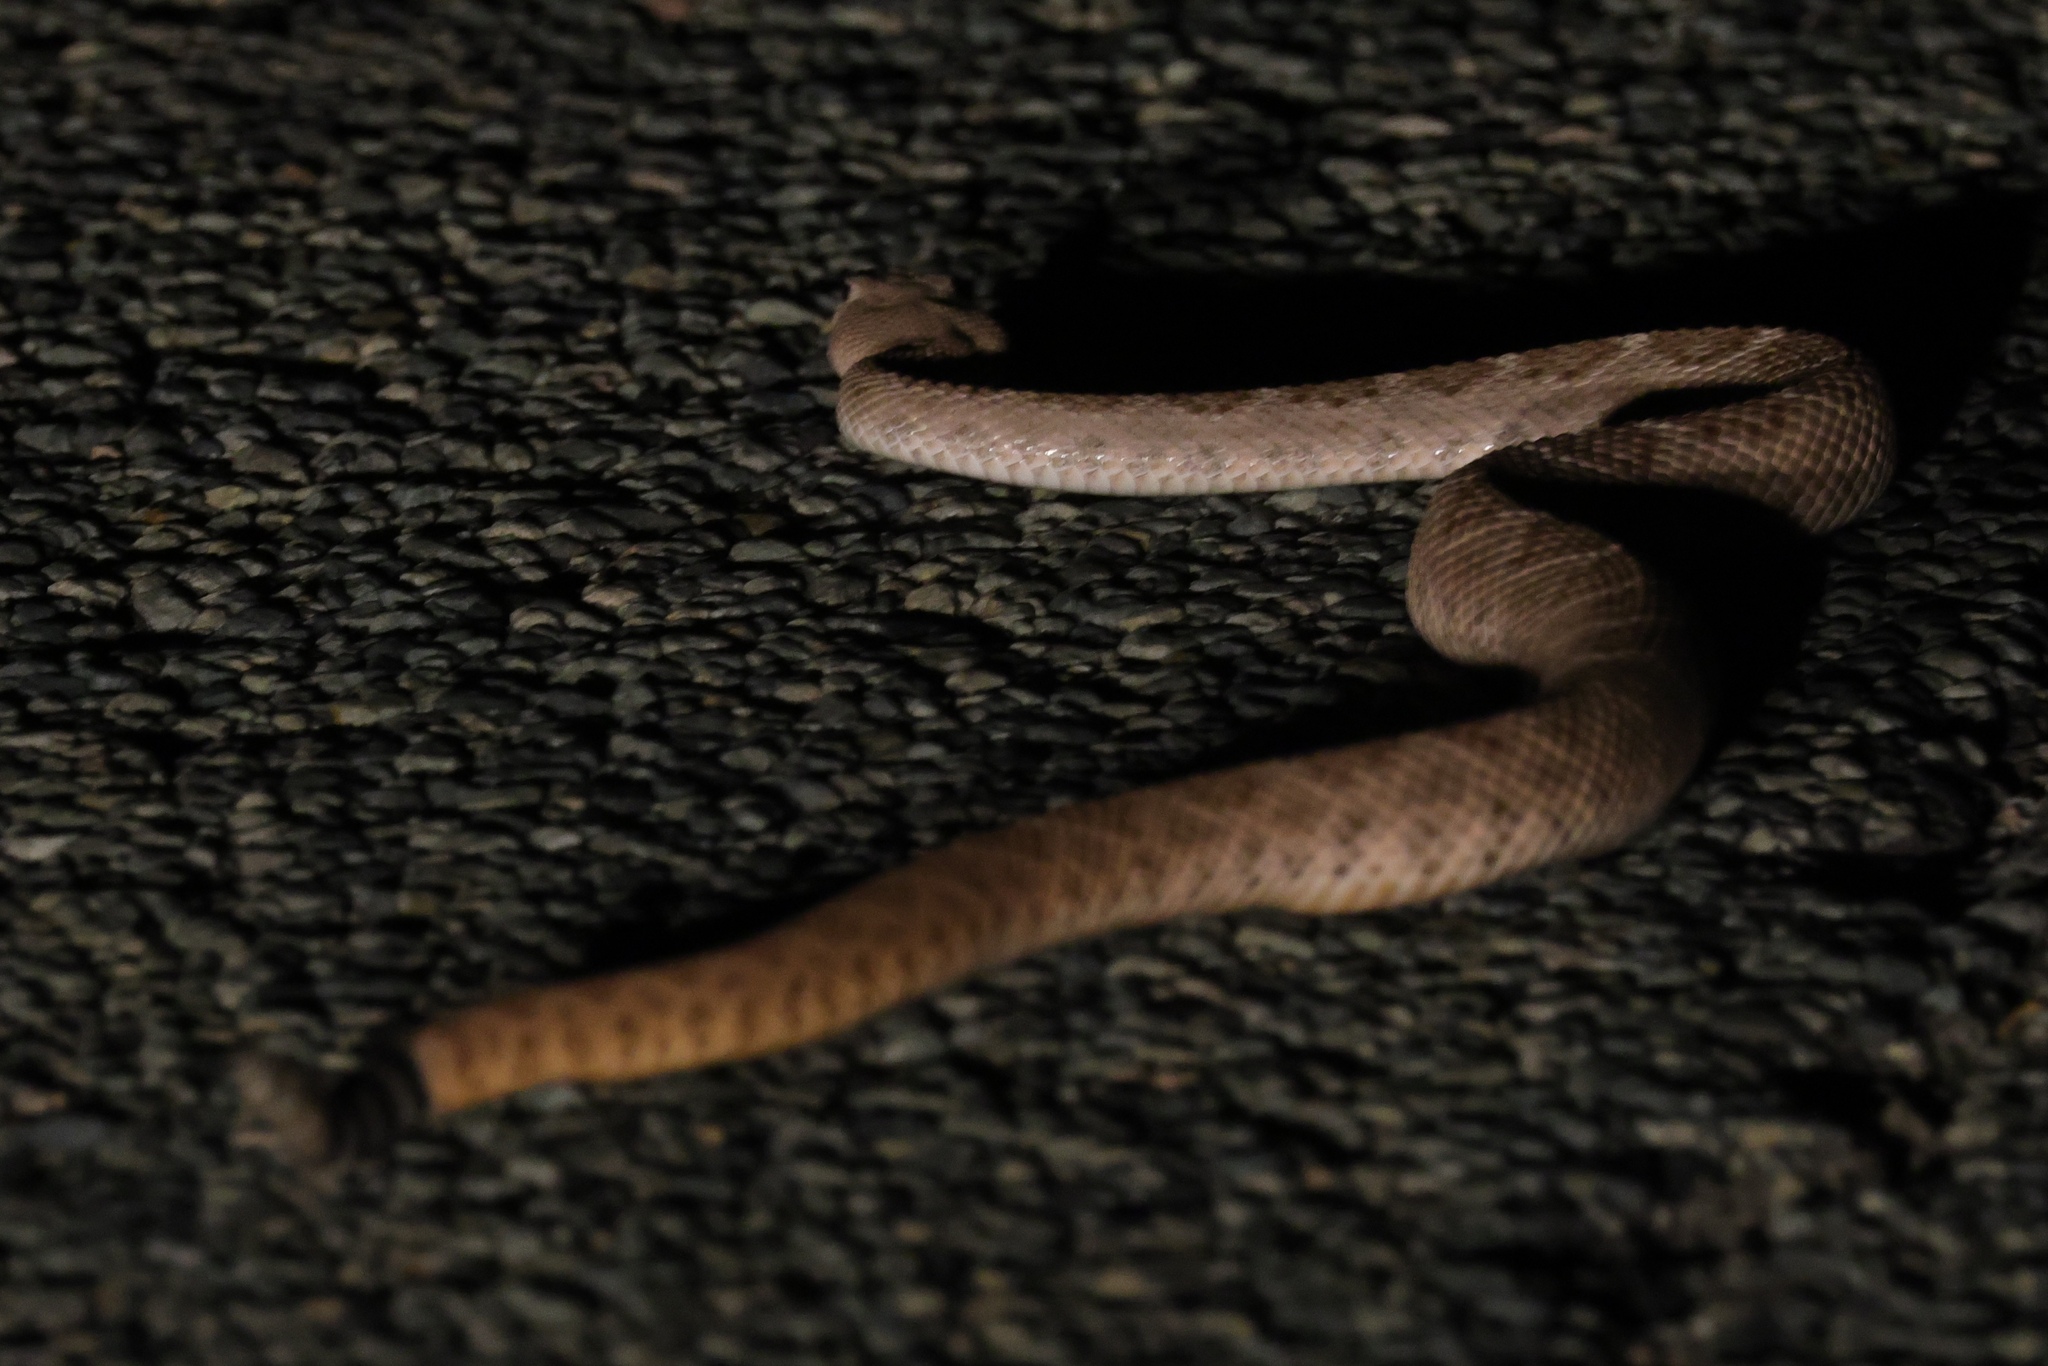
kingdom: Animalia
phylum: Chordata
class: Squamata
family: Viperidae
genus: Crotalus
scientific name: Crotalus atrox
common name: Western diamond-backed rattlesnake
